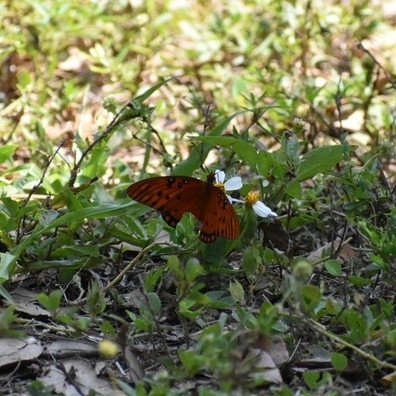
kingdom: Animalia
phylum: Arthropoda
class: Insecta
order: Lepidoptera
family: Nymphalidae
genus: Dione
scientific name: Dione vanillae
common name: Gulf fritillary
